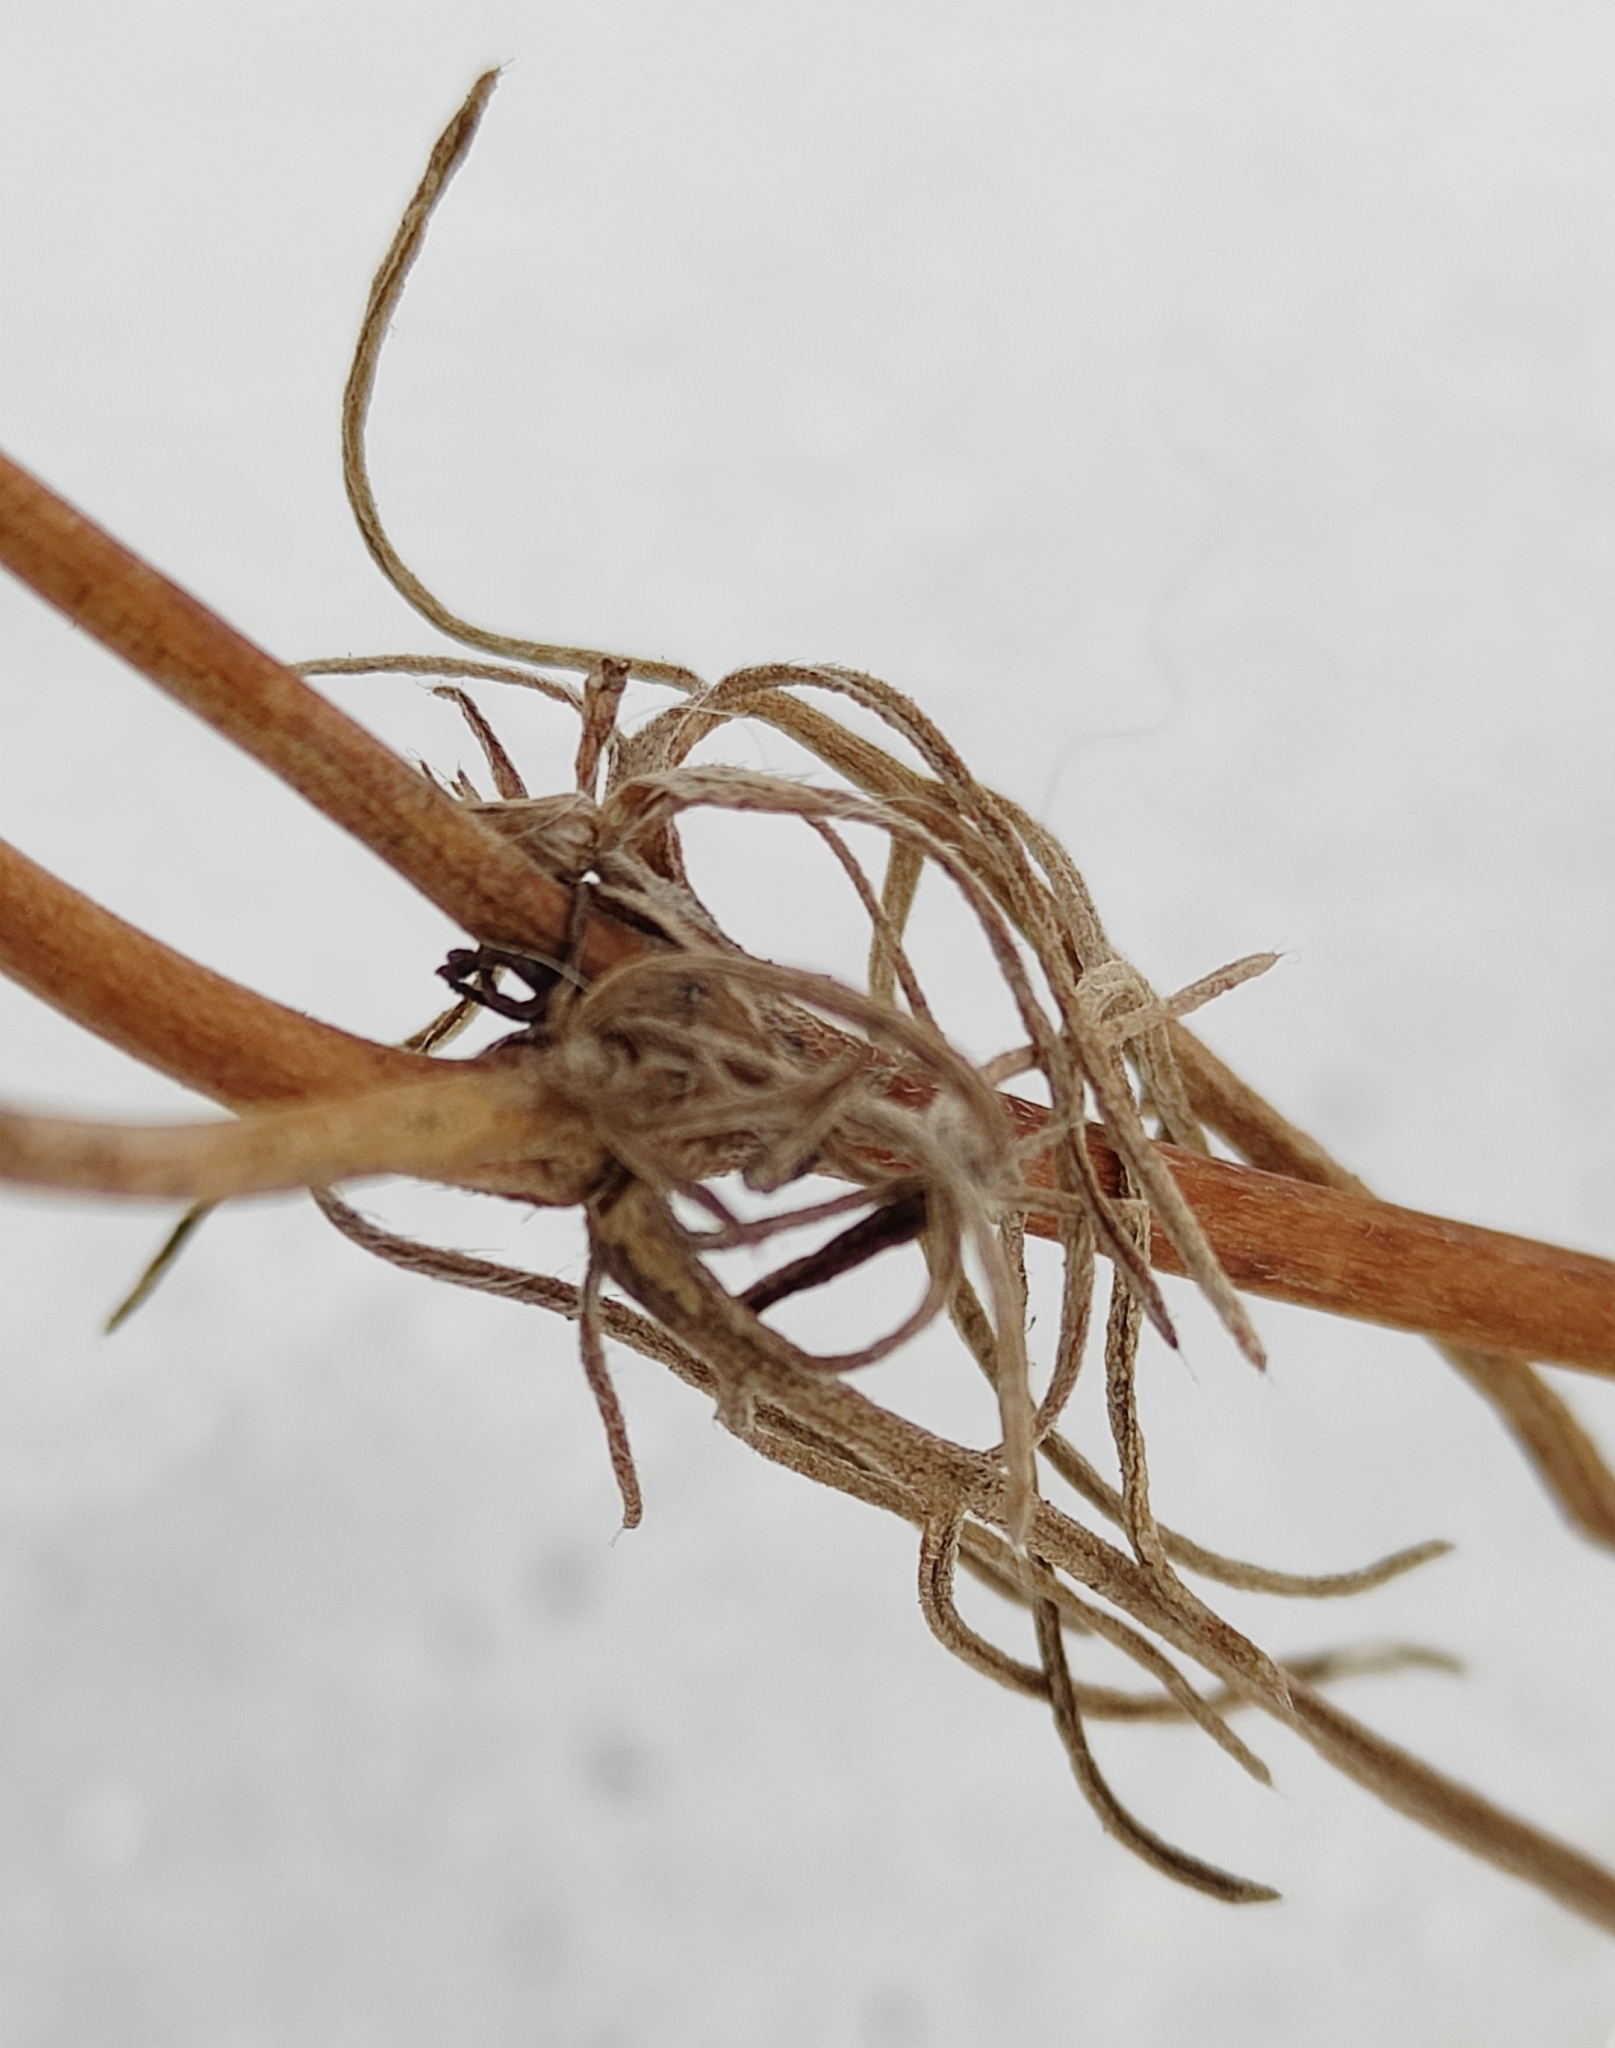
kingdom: Plantae
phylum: Tracheophyta
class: Magnoliopsida
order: Dipsacales
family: Caprifoliaceae
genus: Scabiosa
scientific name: Scabiosa ochroleuca
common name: Cream pincushions
